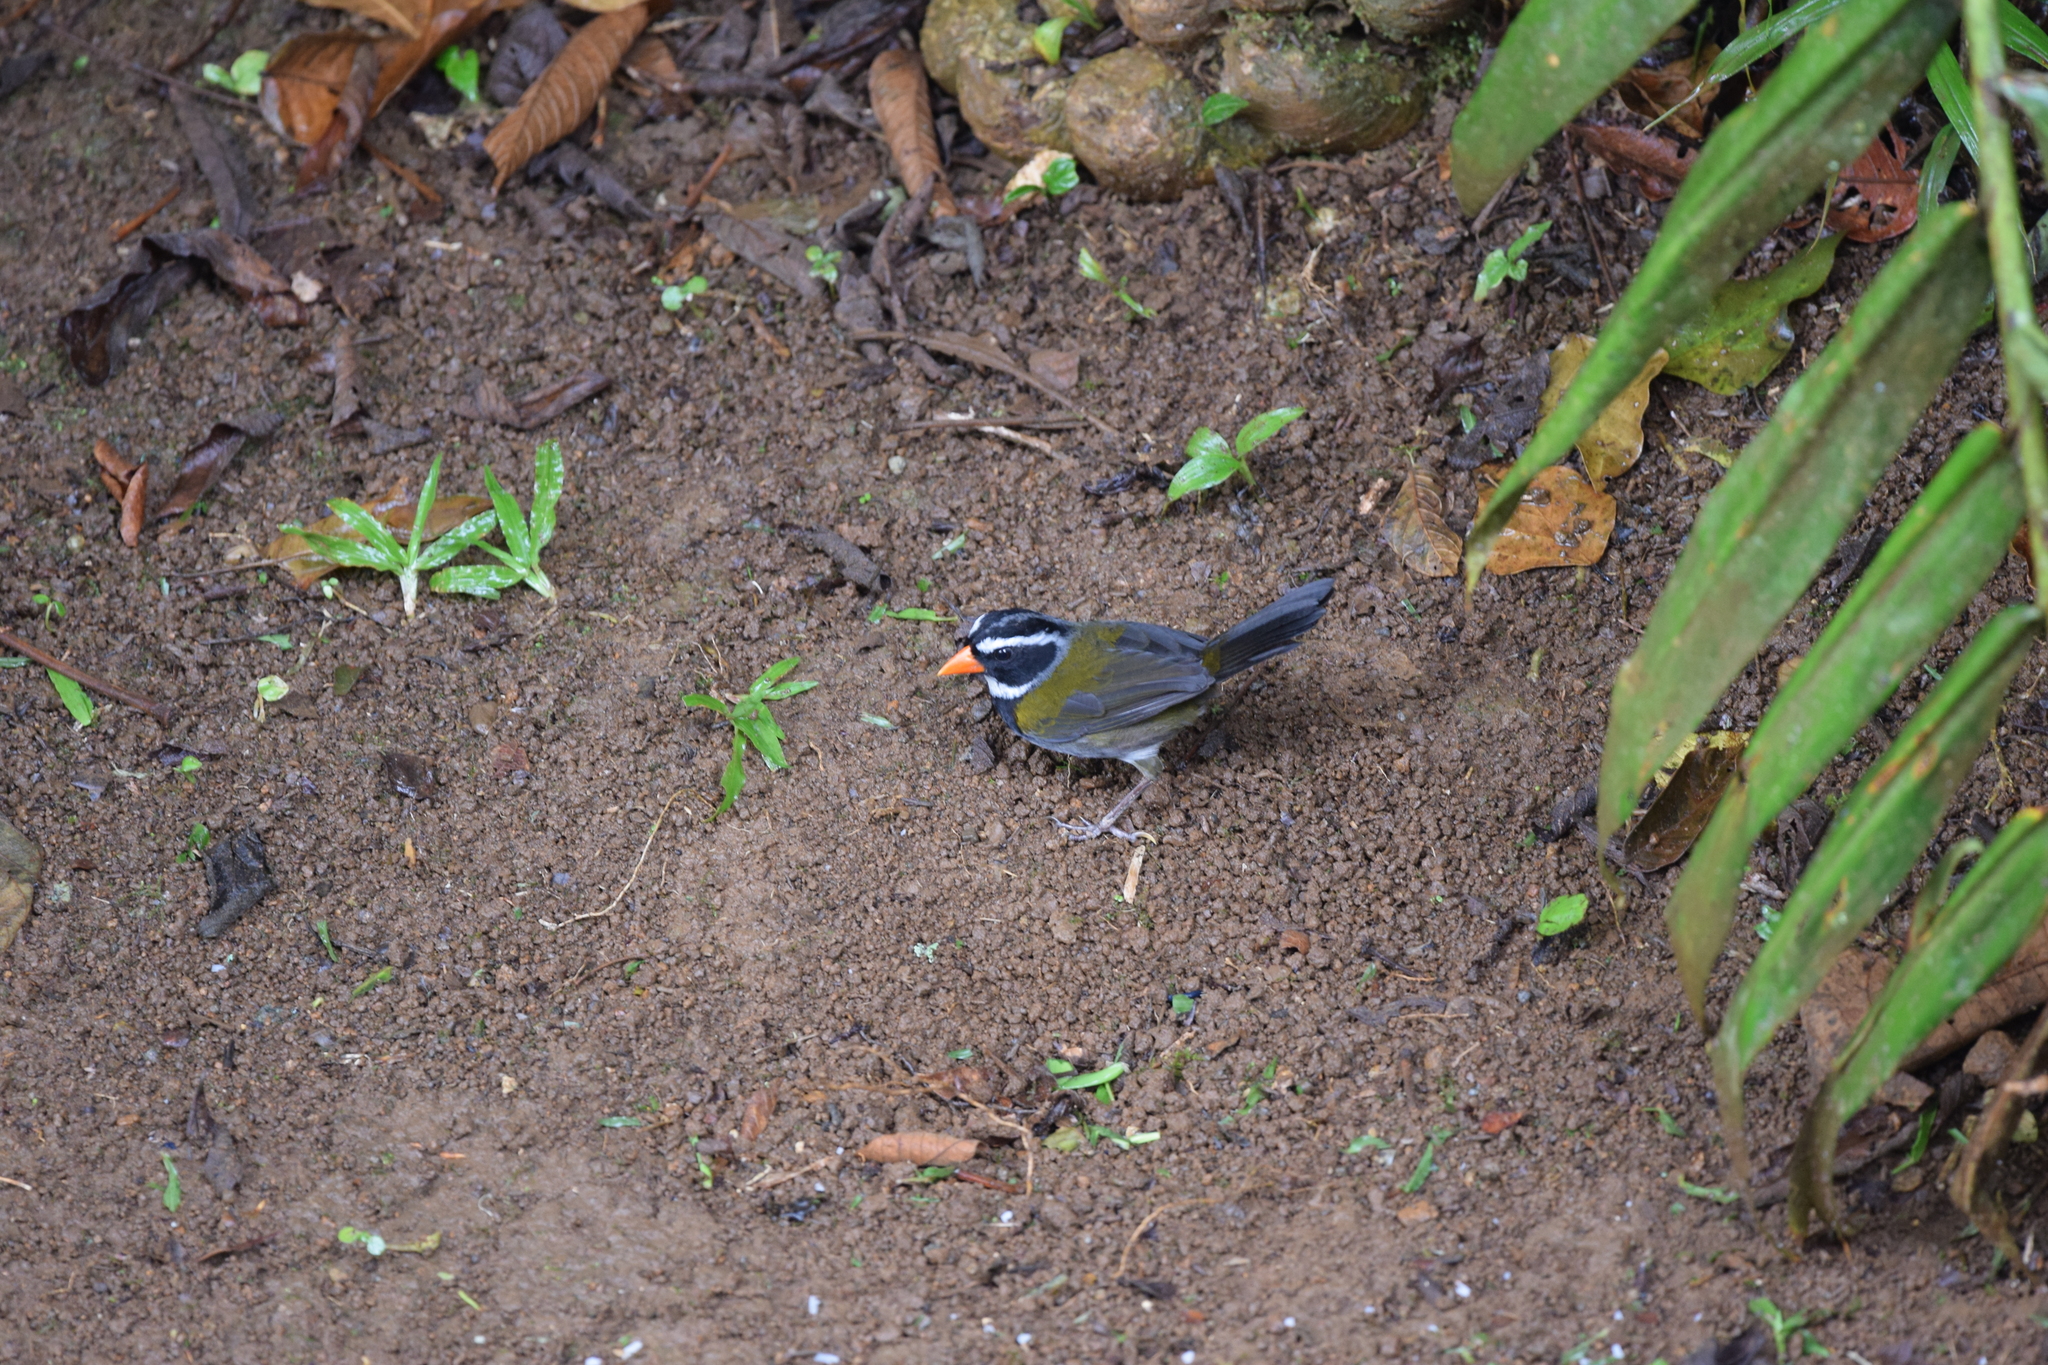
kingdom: Animalia
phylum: Chordata
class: Aves
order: Passeriformes
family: Passerellidae
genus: Arremon
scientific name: Arremon aurantiirostris
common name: Orange-billed sparrow
